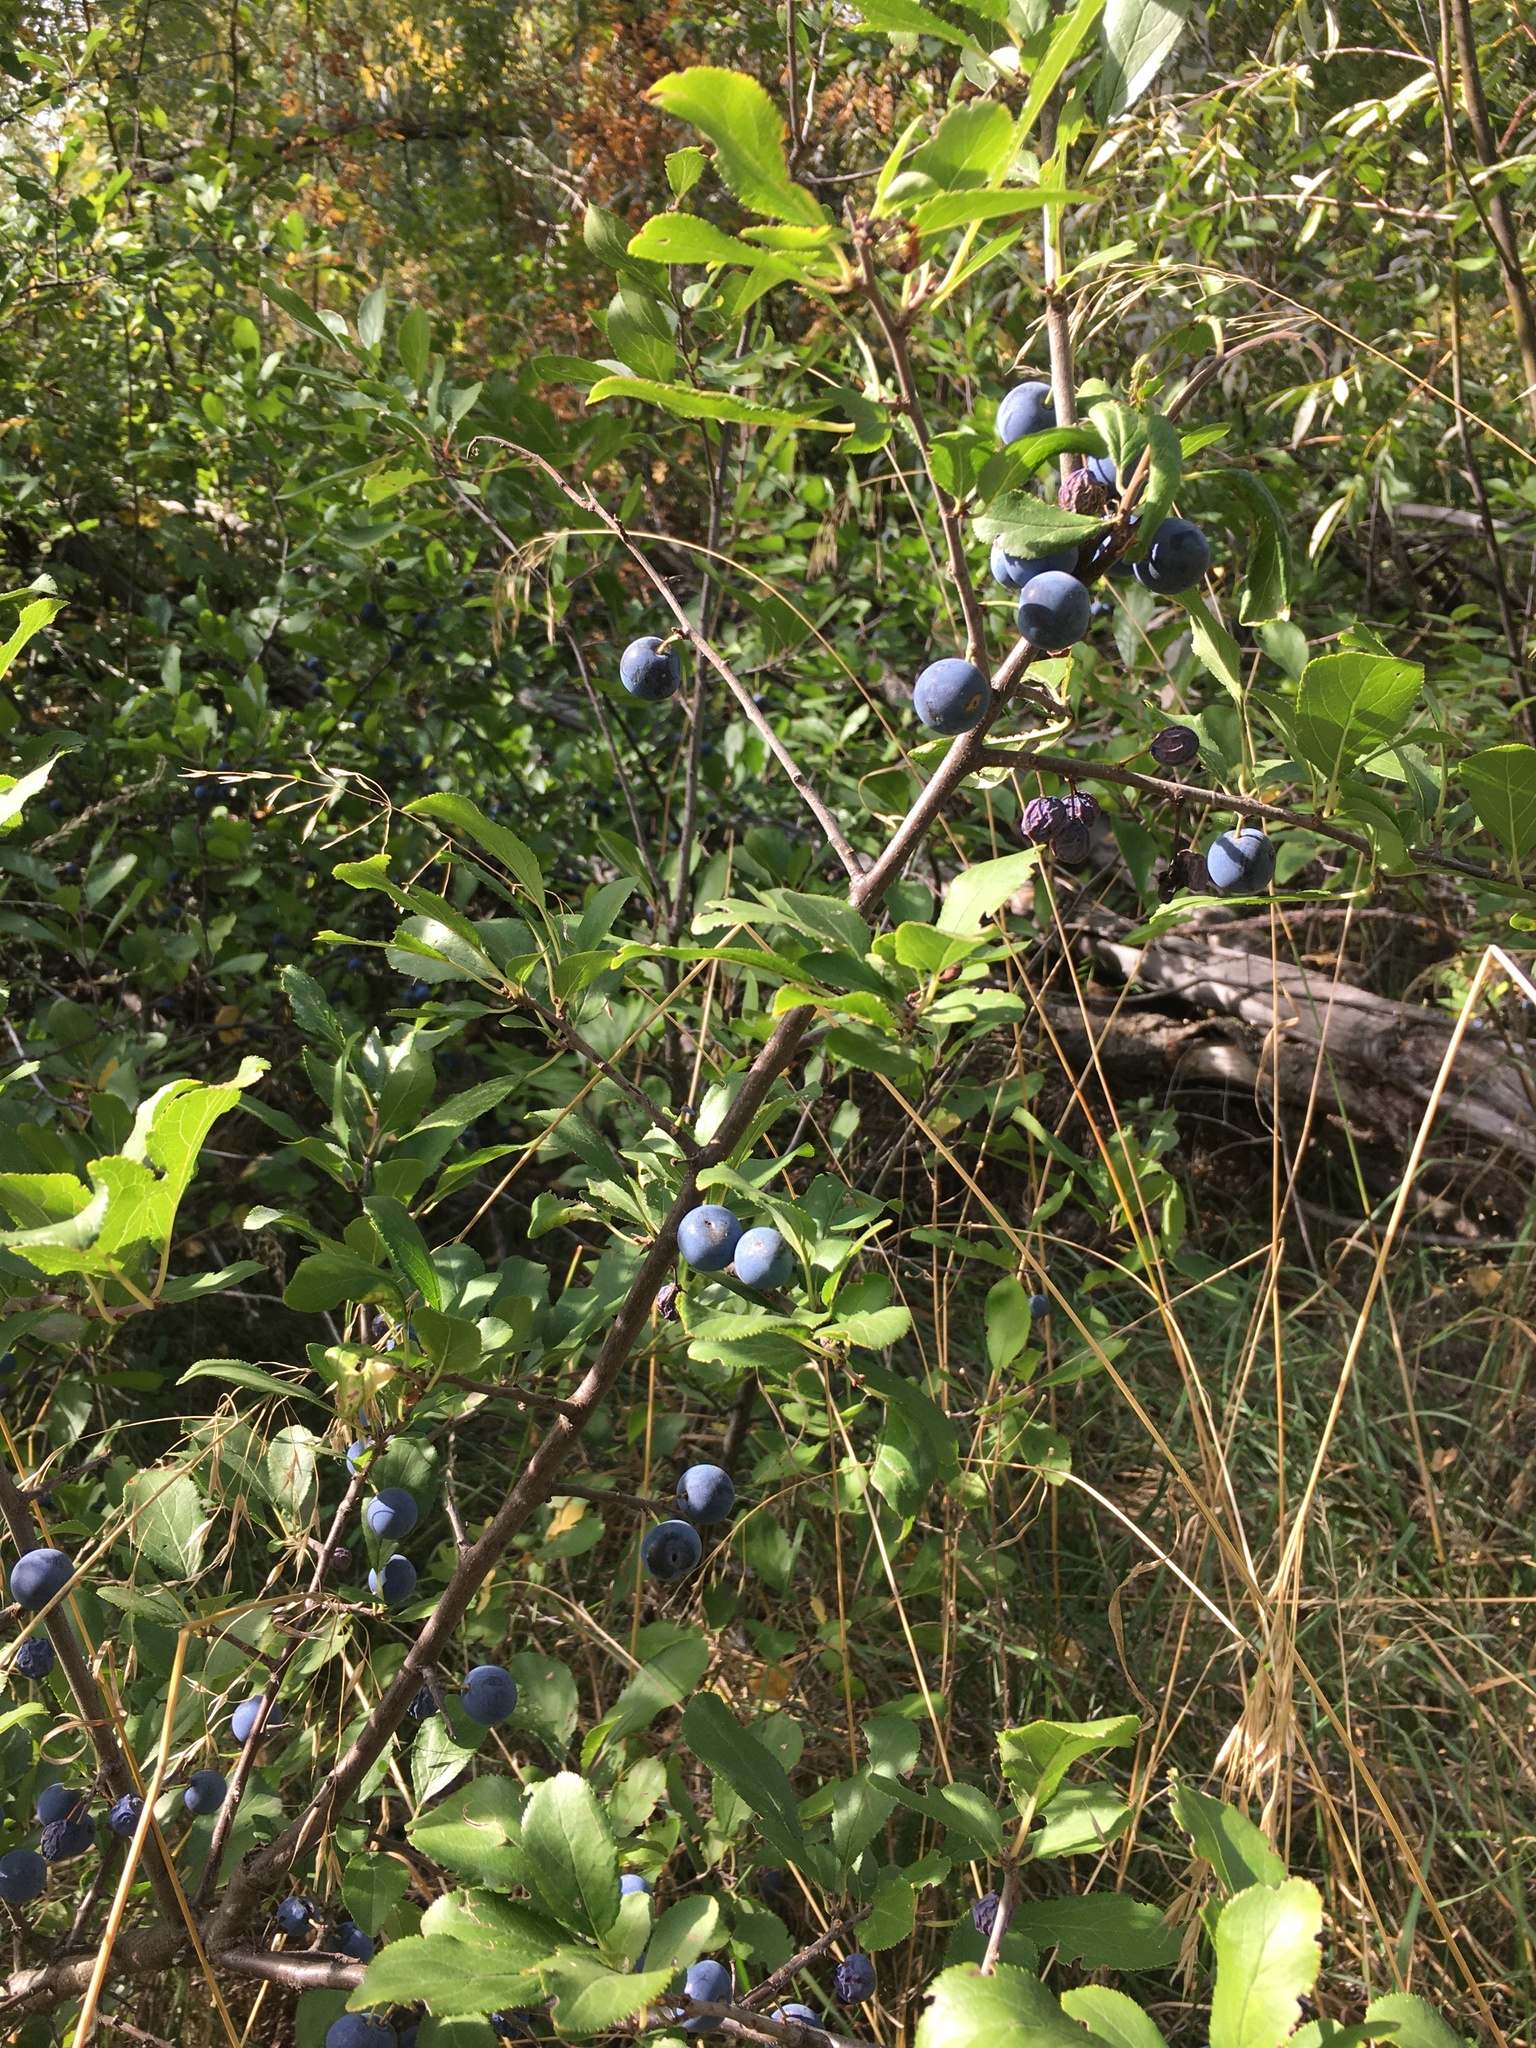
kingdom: Plantae
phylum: Tracheophyta
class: Magnoliopsida
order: Rosales
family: Rosaceae
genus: Prunus
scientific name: Prunus spinosa
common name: Blackthorn
